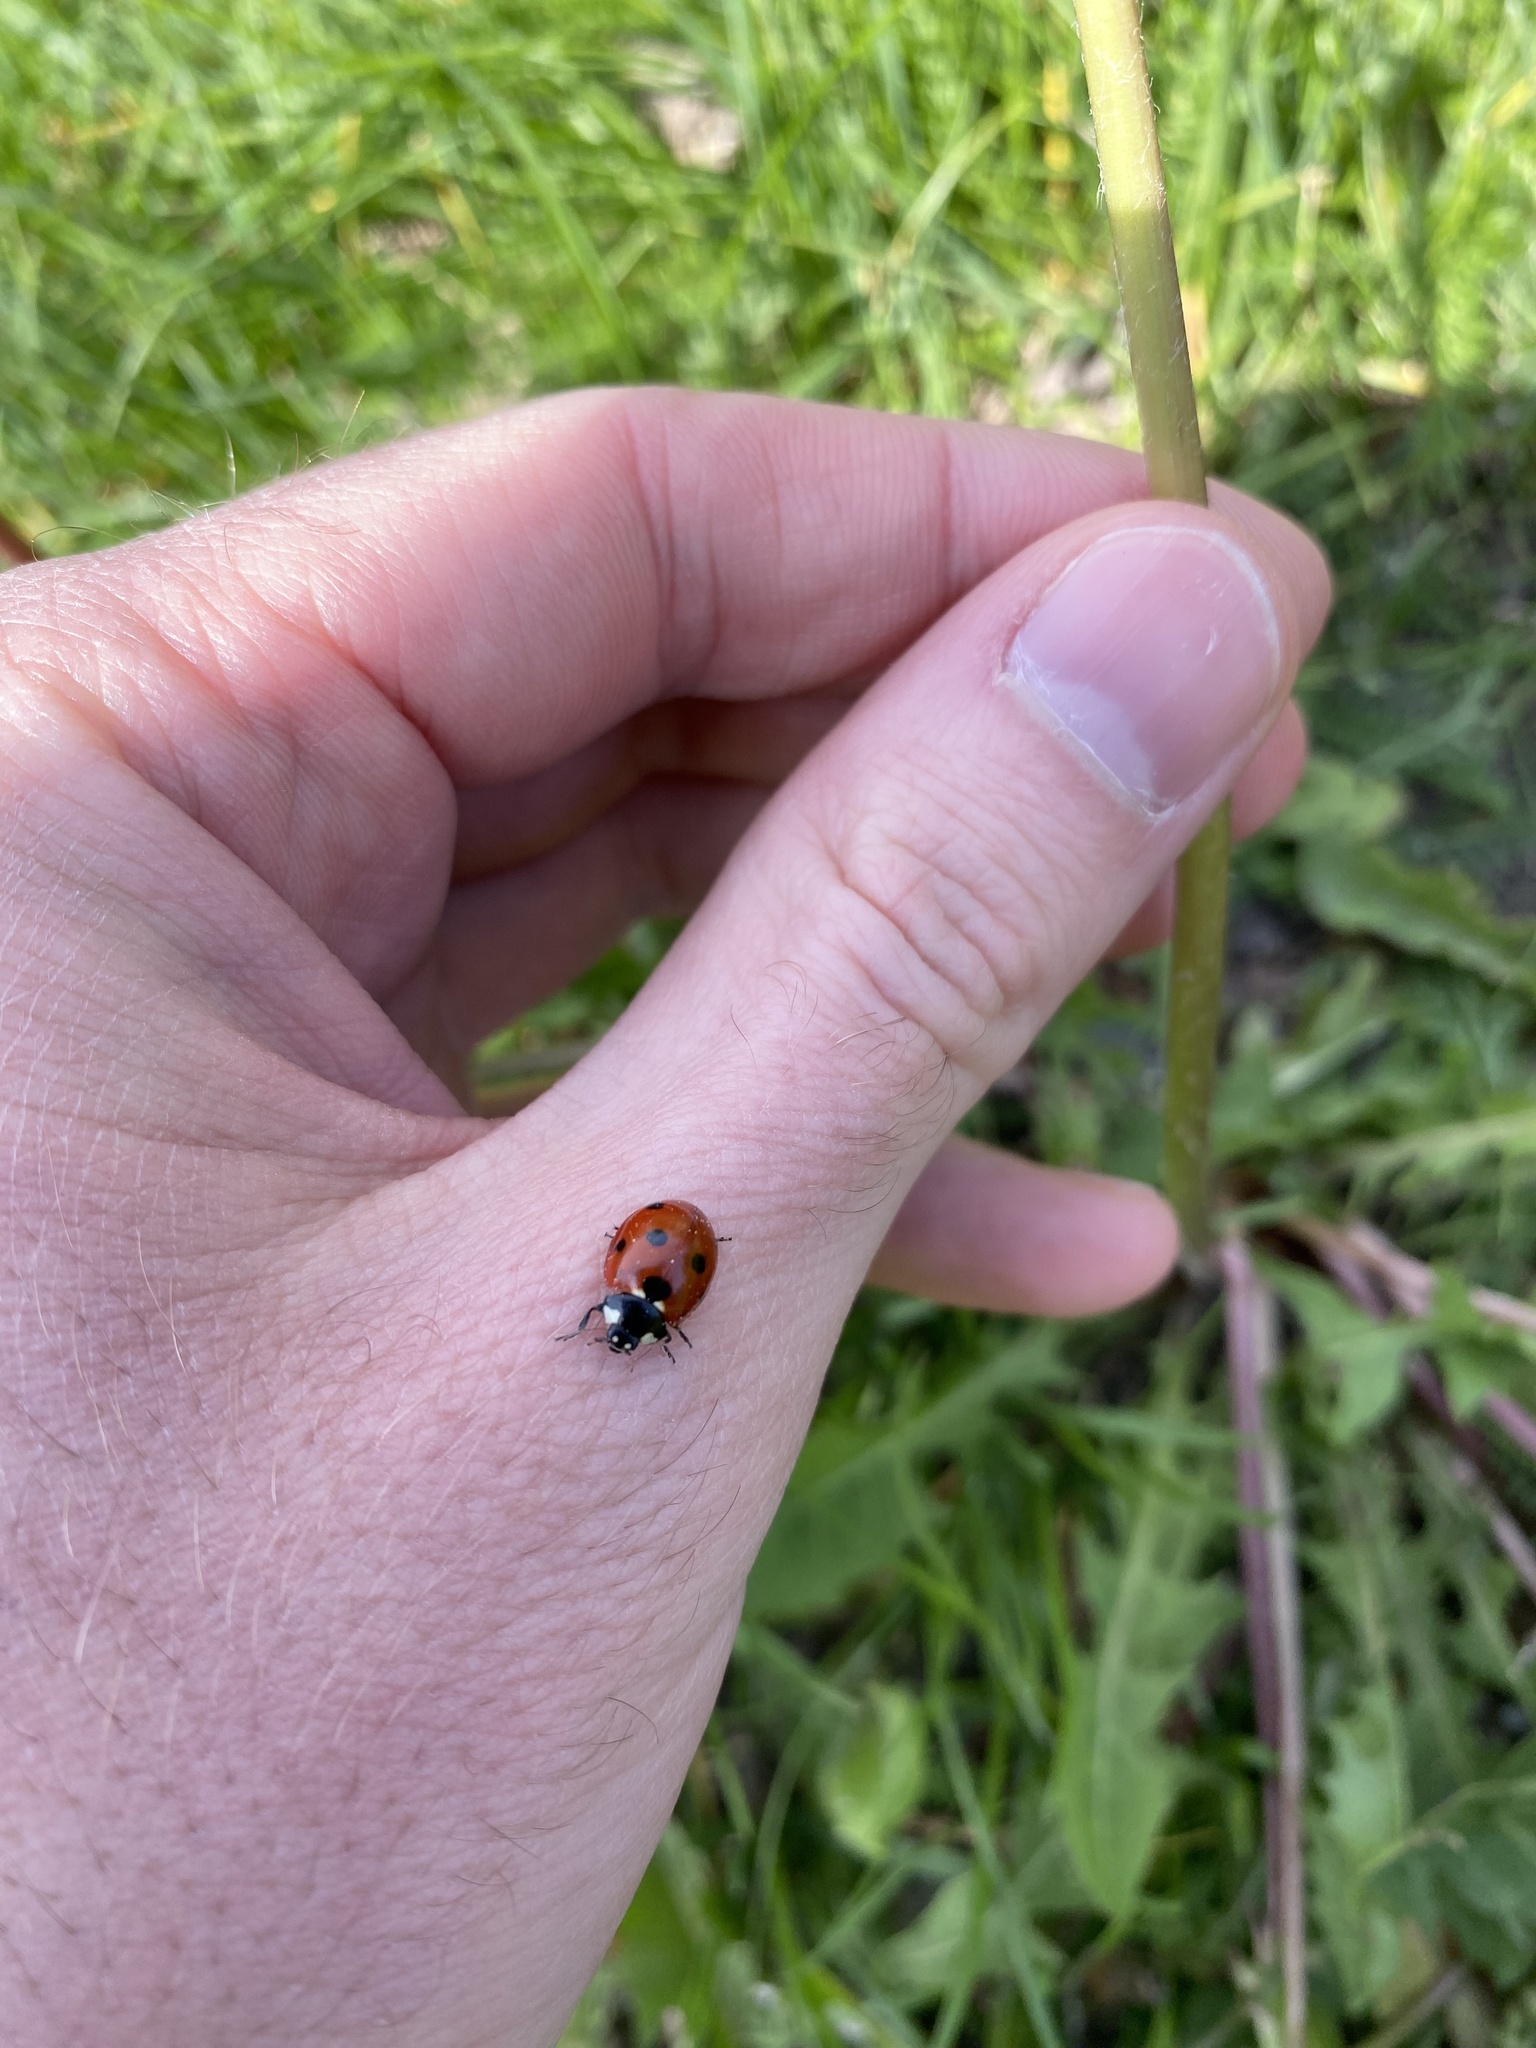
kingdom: Animalia
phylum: Arthropoda
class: Insecta
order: Coleoptera
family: Coccinellidae
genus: Coccinella
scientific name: Coccinella septempunctata
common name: Sevenspotted lady beetle
